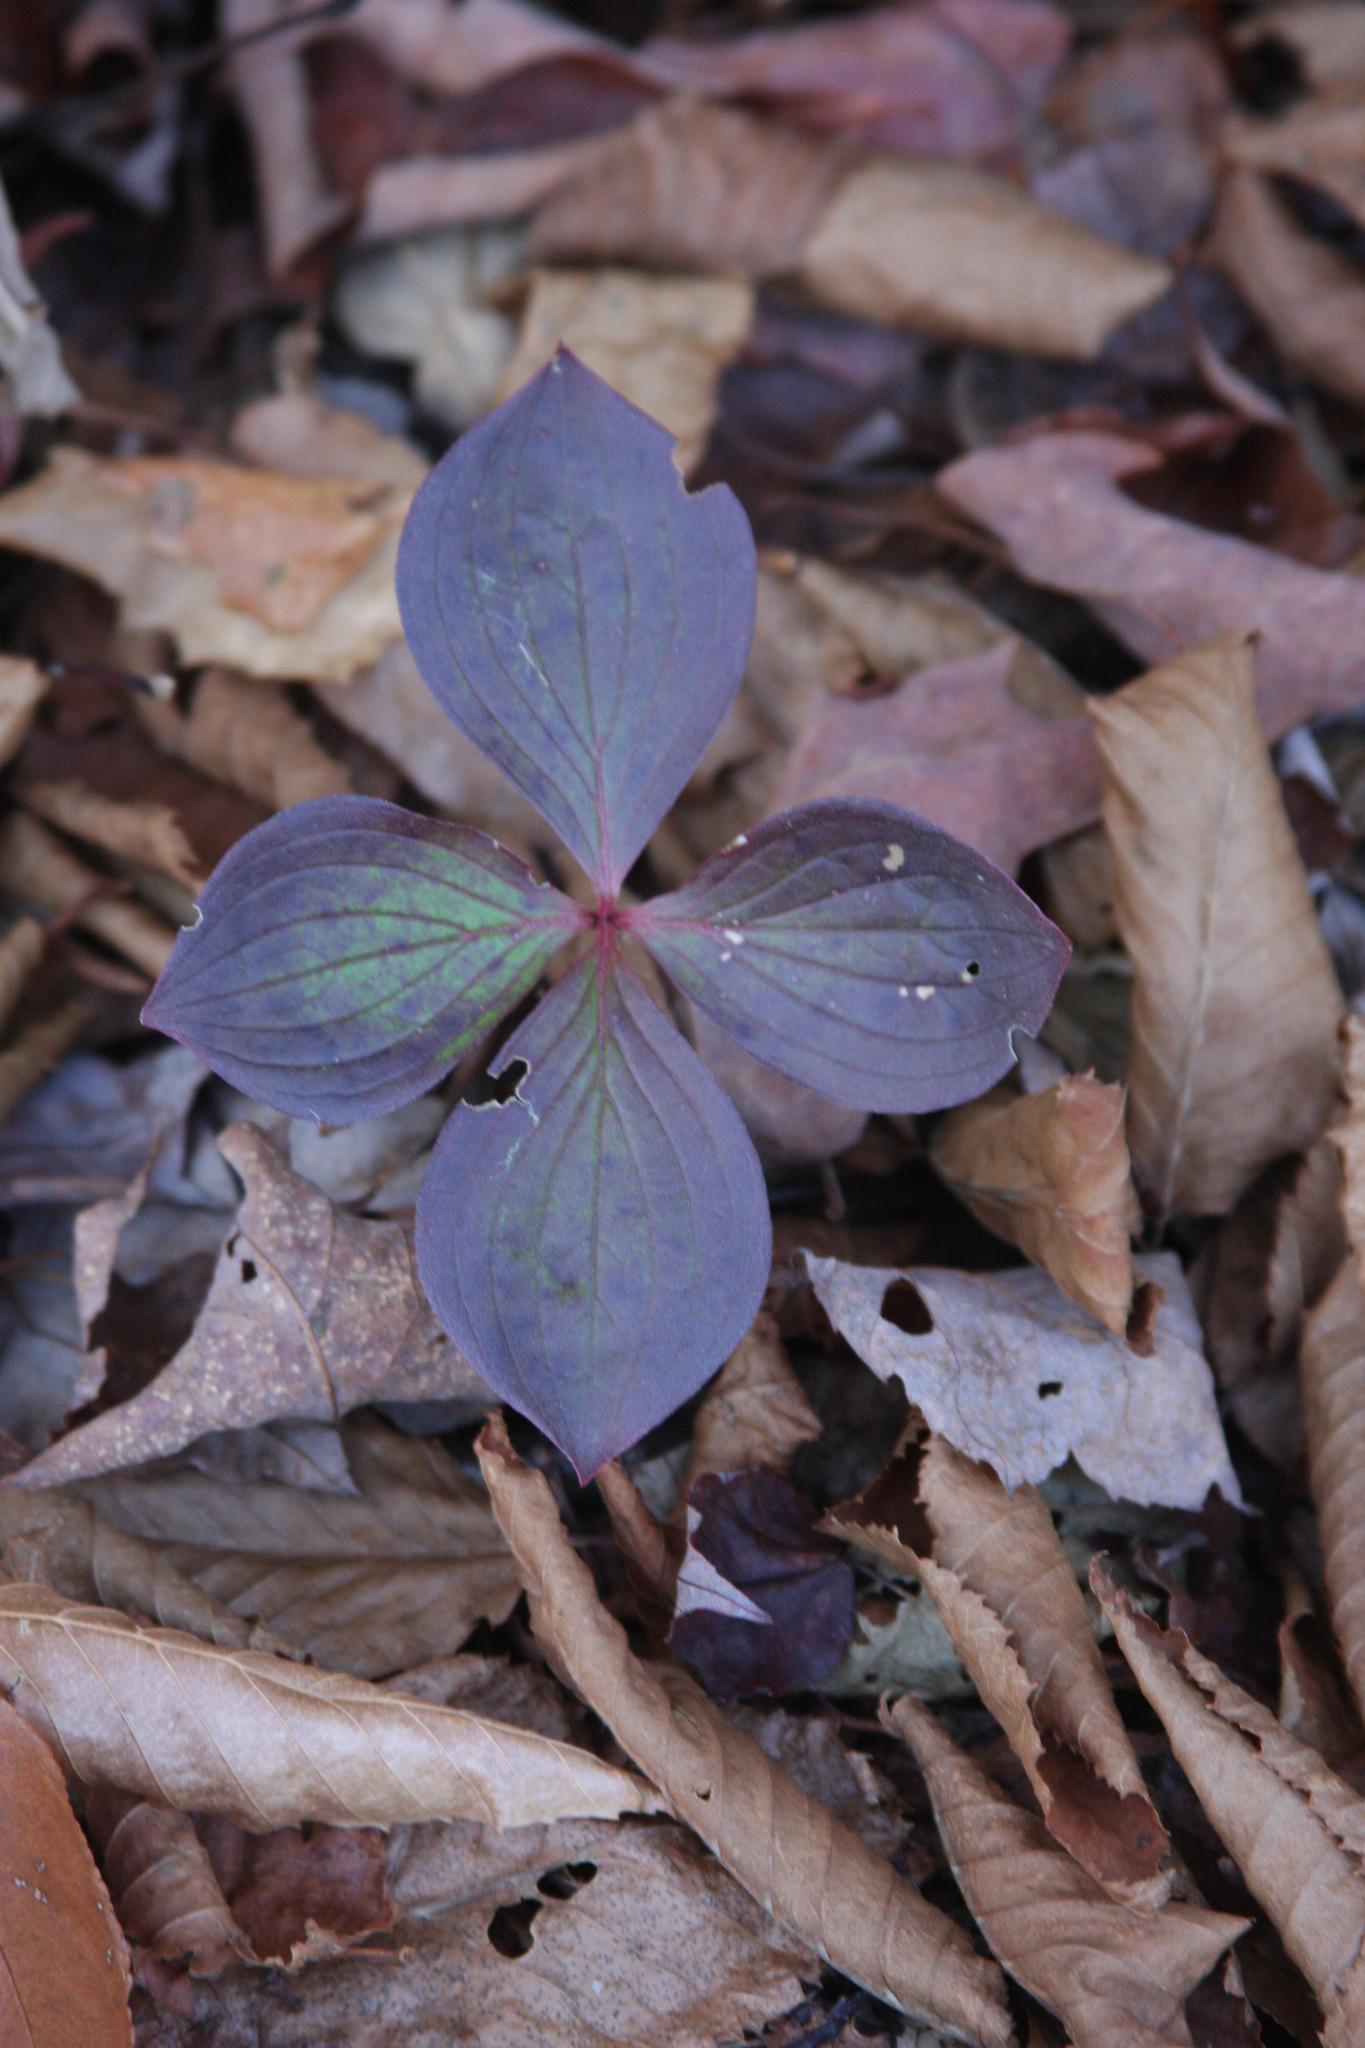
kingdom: Plantae
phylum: Tracheophyta
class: Magnoliopsida
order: Cornales
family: Cornaceae
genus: Cornus
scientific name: Cornus canadensis
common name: Creeping dogwood
